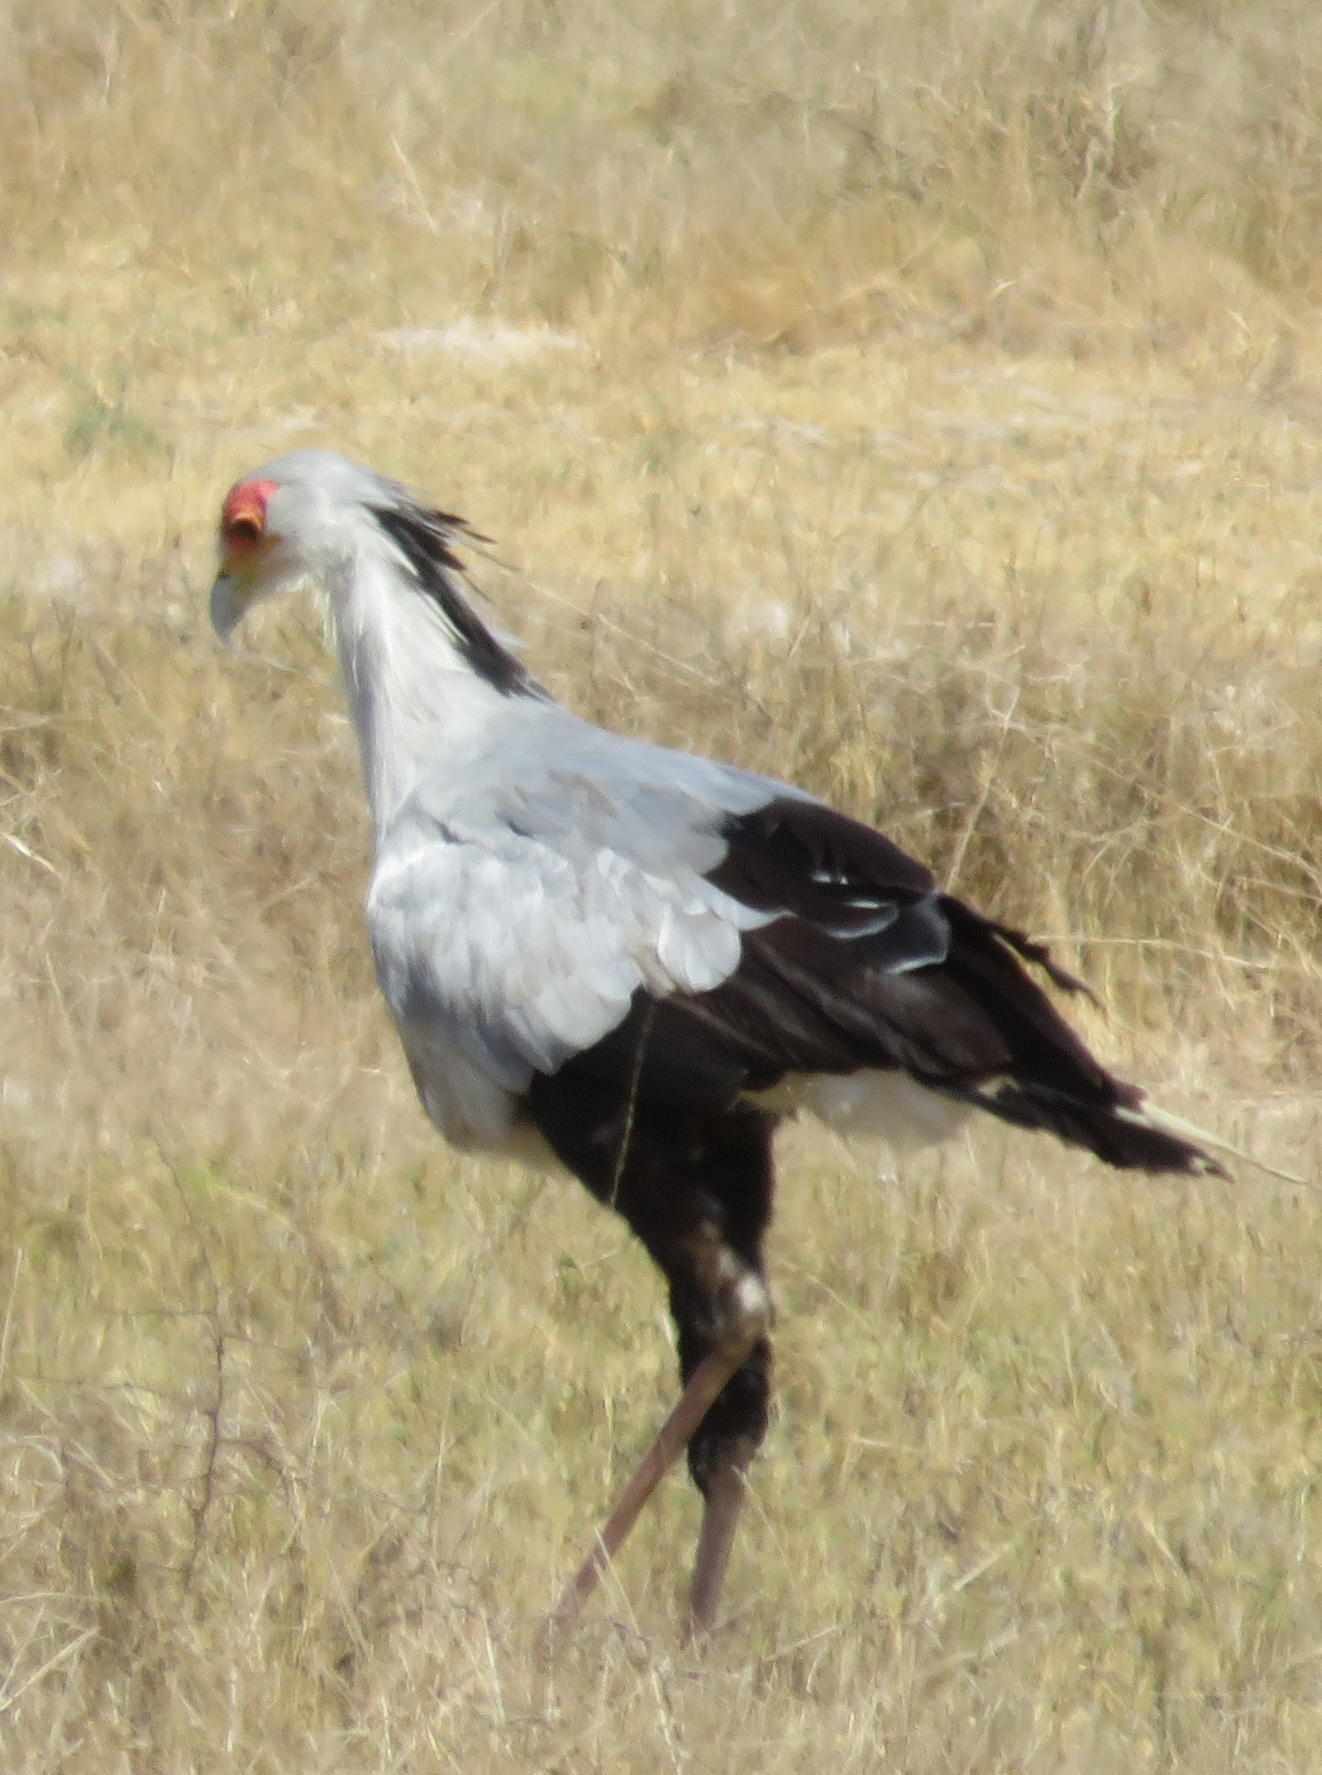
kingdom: Animalia
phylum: Chordata
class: Aves
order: Accipitriformes
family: Sagittariidae
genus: Sagittarius
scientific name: Sagittarius serpentarius
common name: Secretarybird
